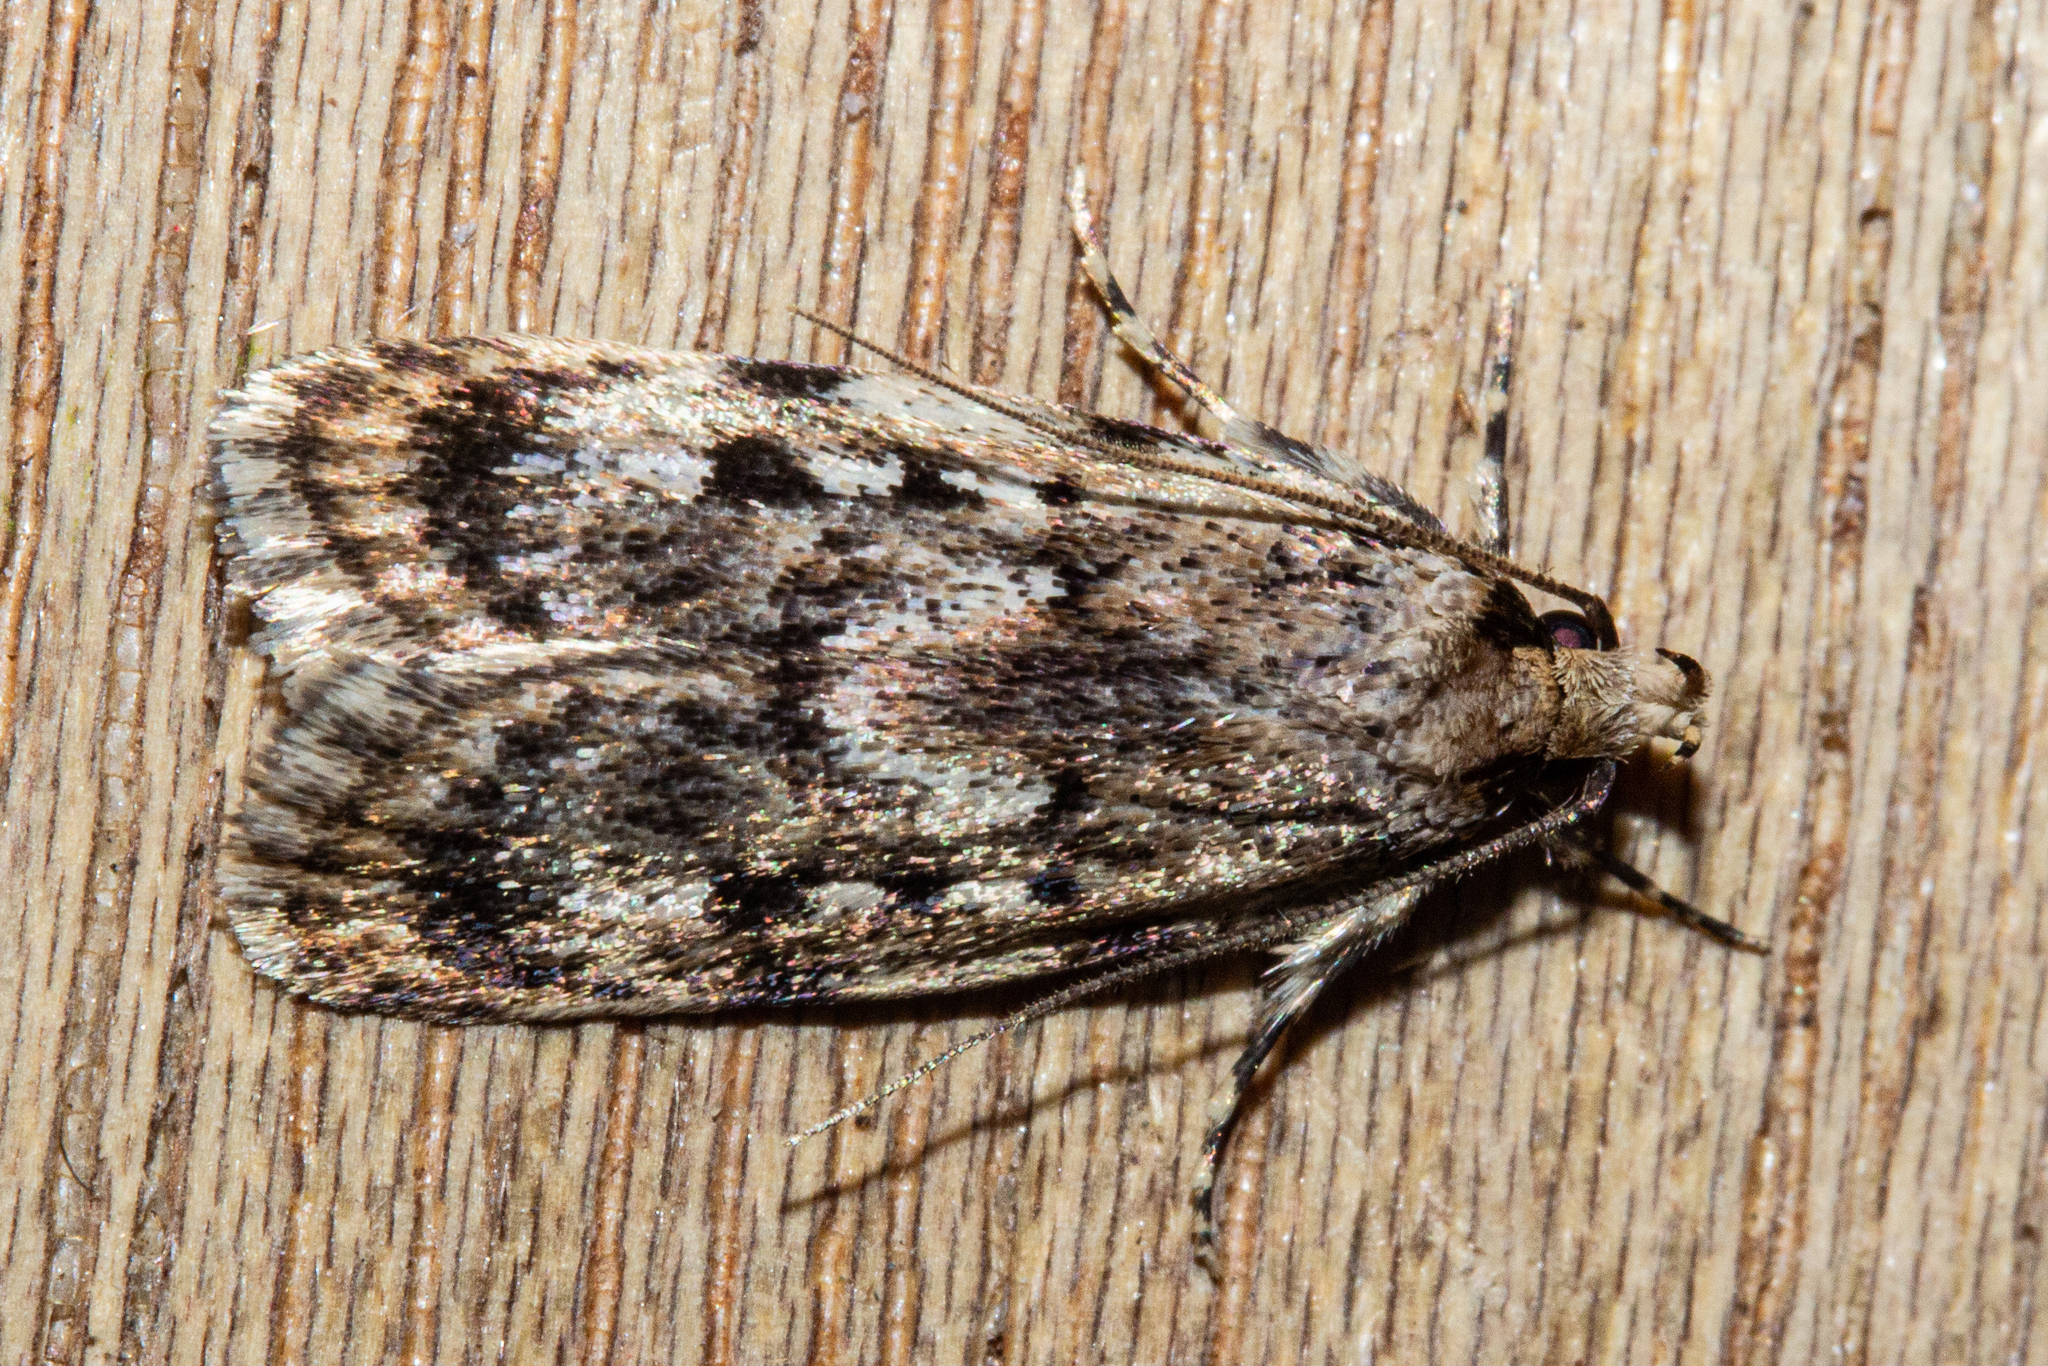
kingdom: Animalia
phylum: Arthropoda
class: Insecta
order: Lepidoptera
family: Oecophoridae
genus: Barea
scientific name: Barea exarcha
